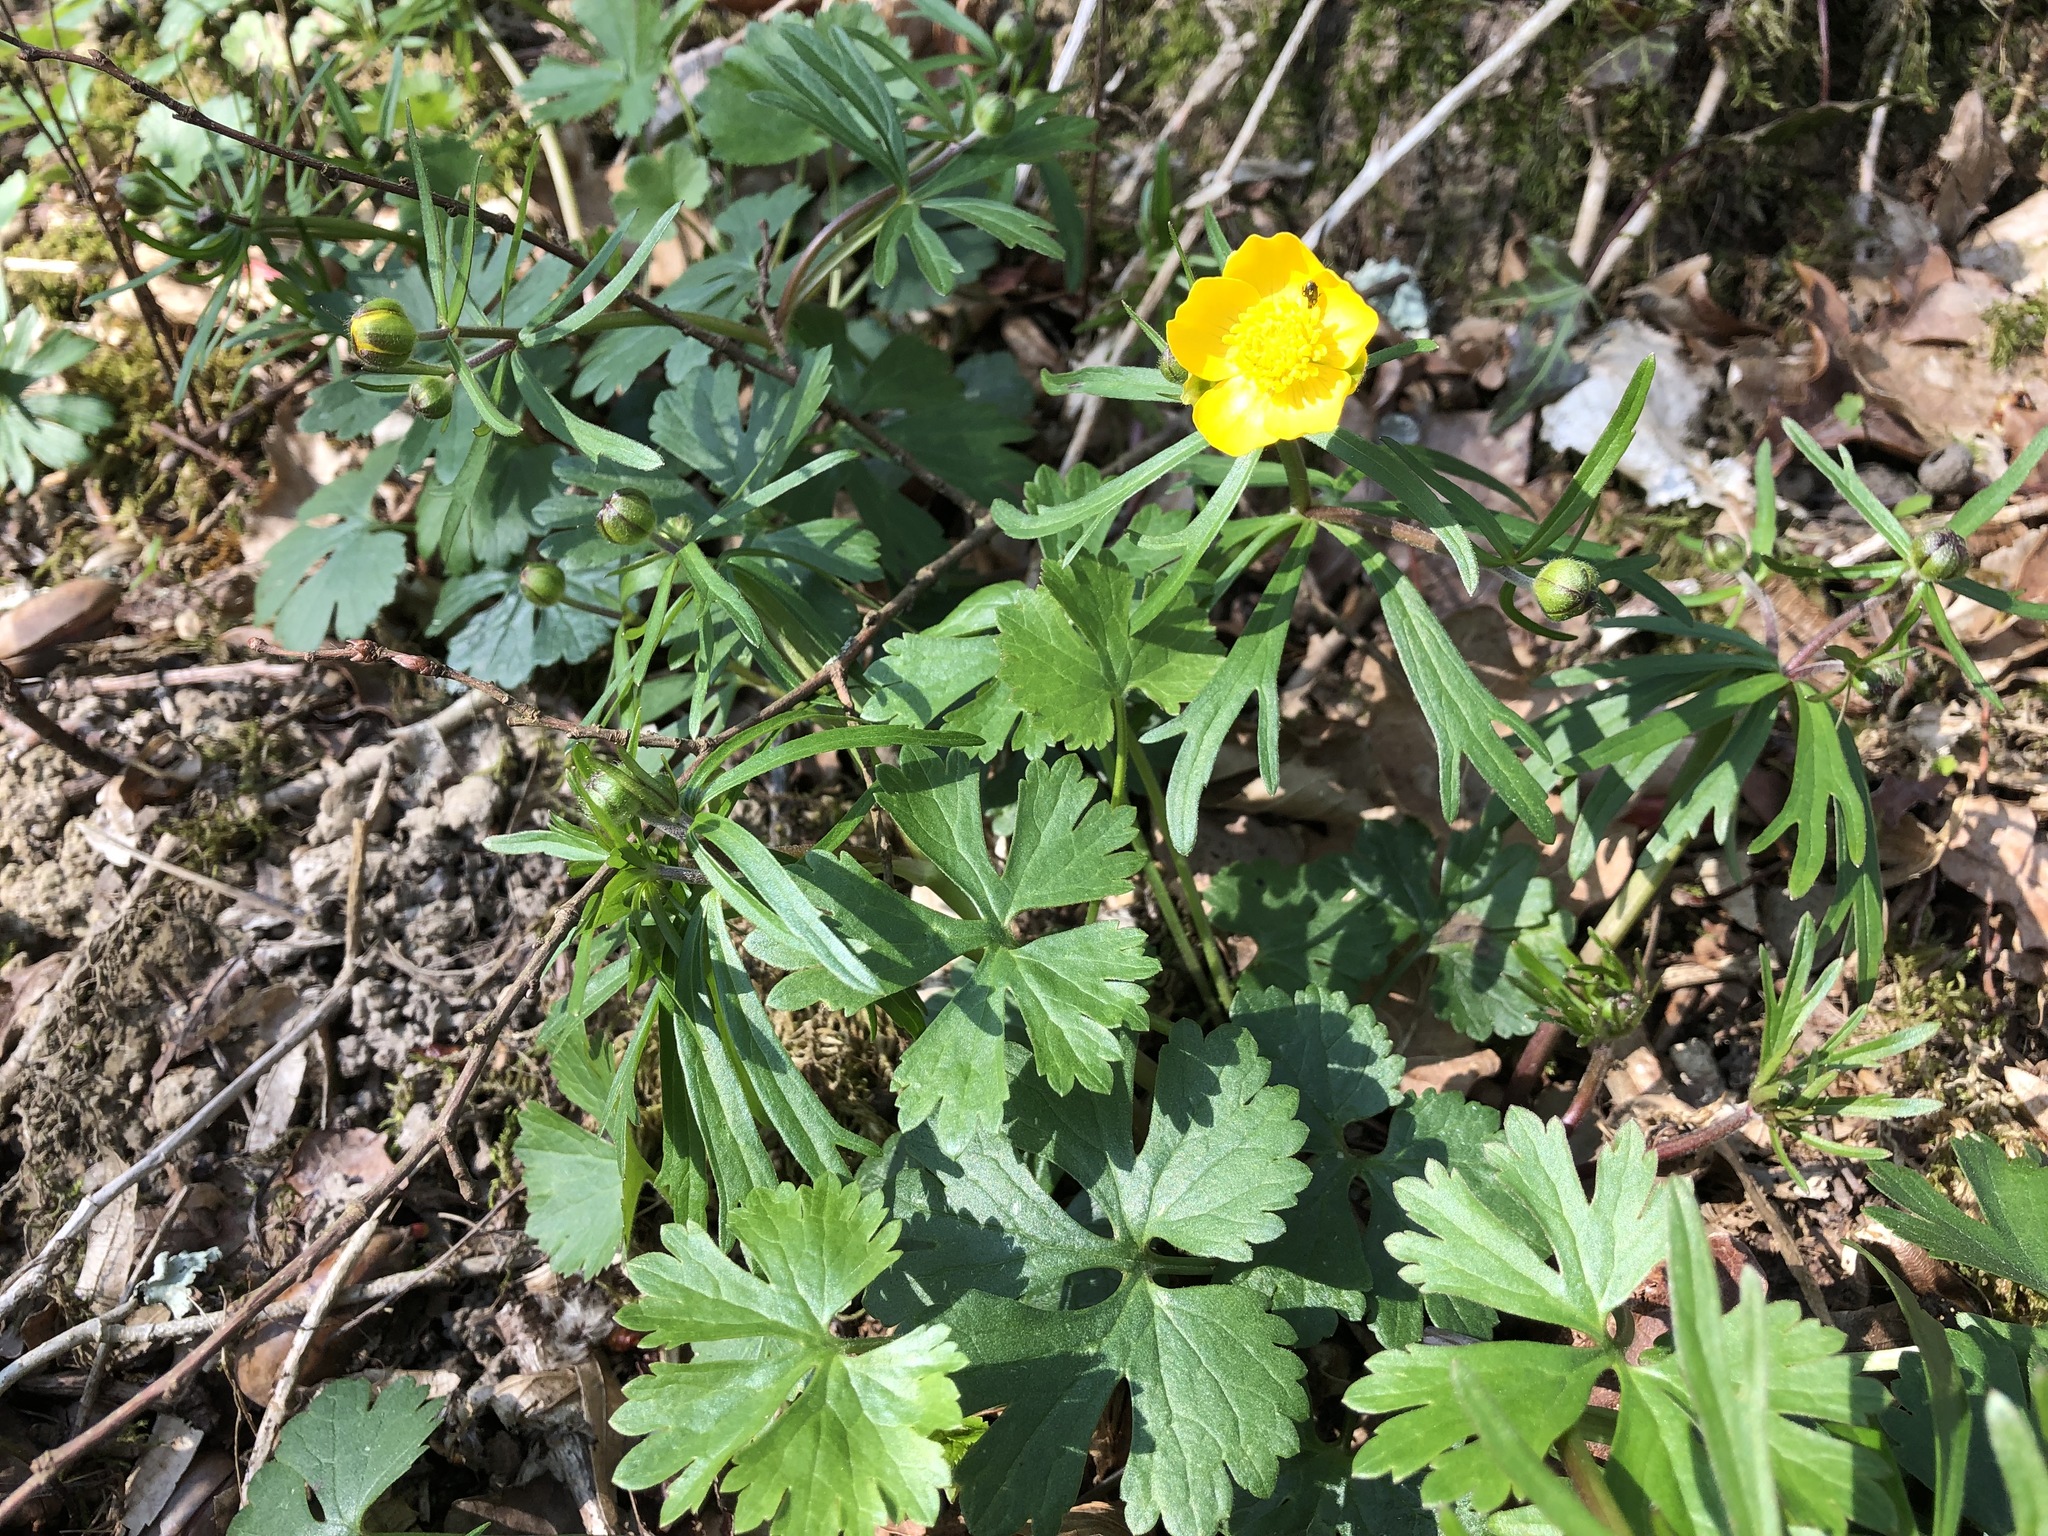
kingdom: Plantae
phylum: Tracheophyta
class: Magnoliopsida
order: Ranunculales
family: Ranunculaceae
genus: Ranunculus
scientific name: Ranunculus auricomus
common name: Goldilocks buttercup
